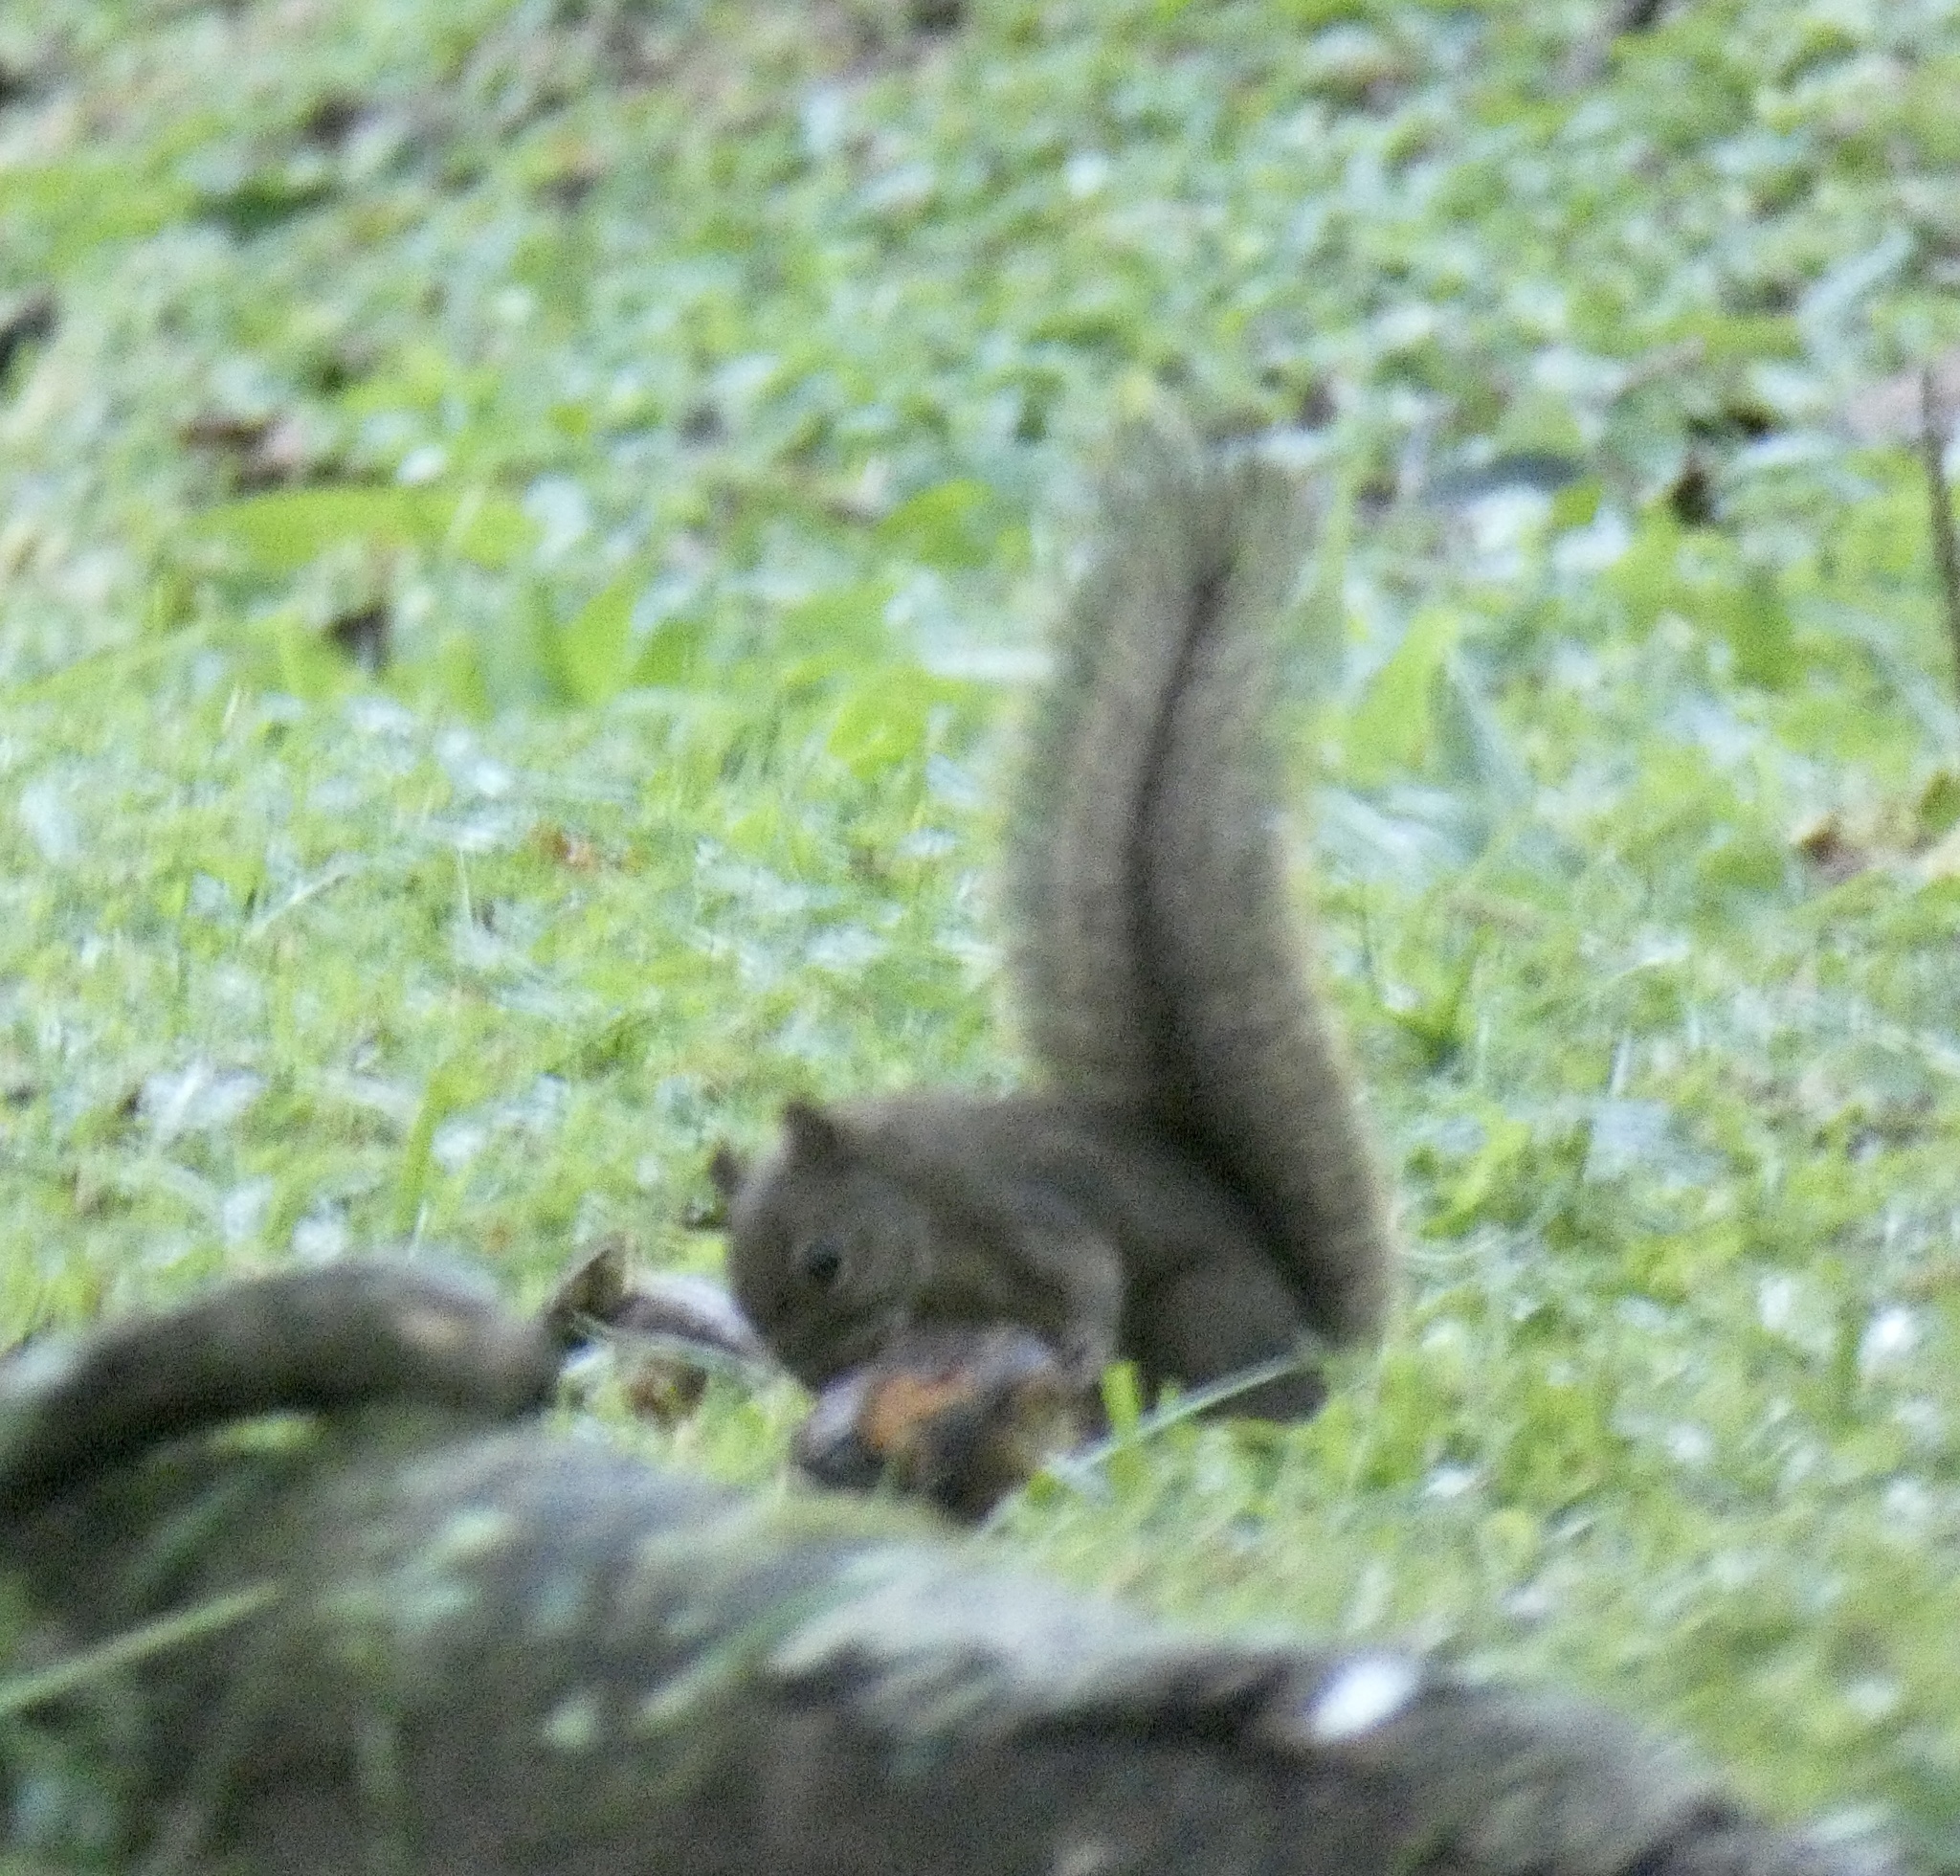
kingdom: Animalia
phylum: Chordata
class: Mammalia
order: Rodentia
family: Sciuridae
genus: Sciurus
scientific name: Sciurus aestuans
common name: Guianan squirrel
